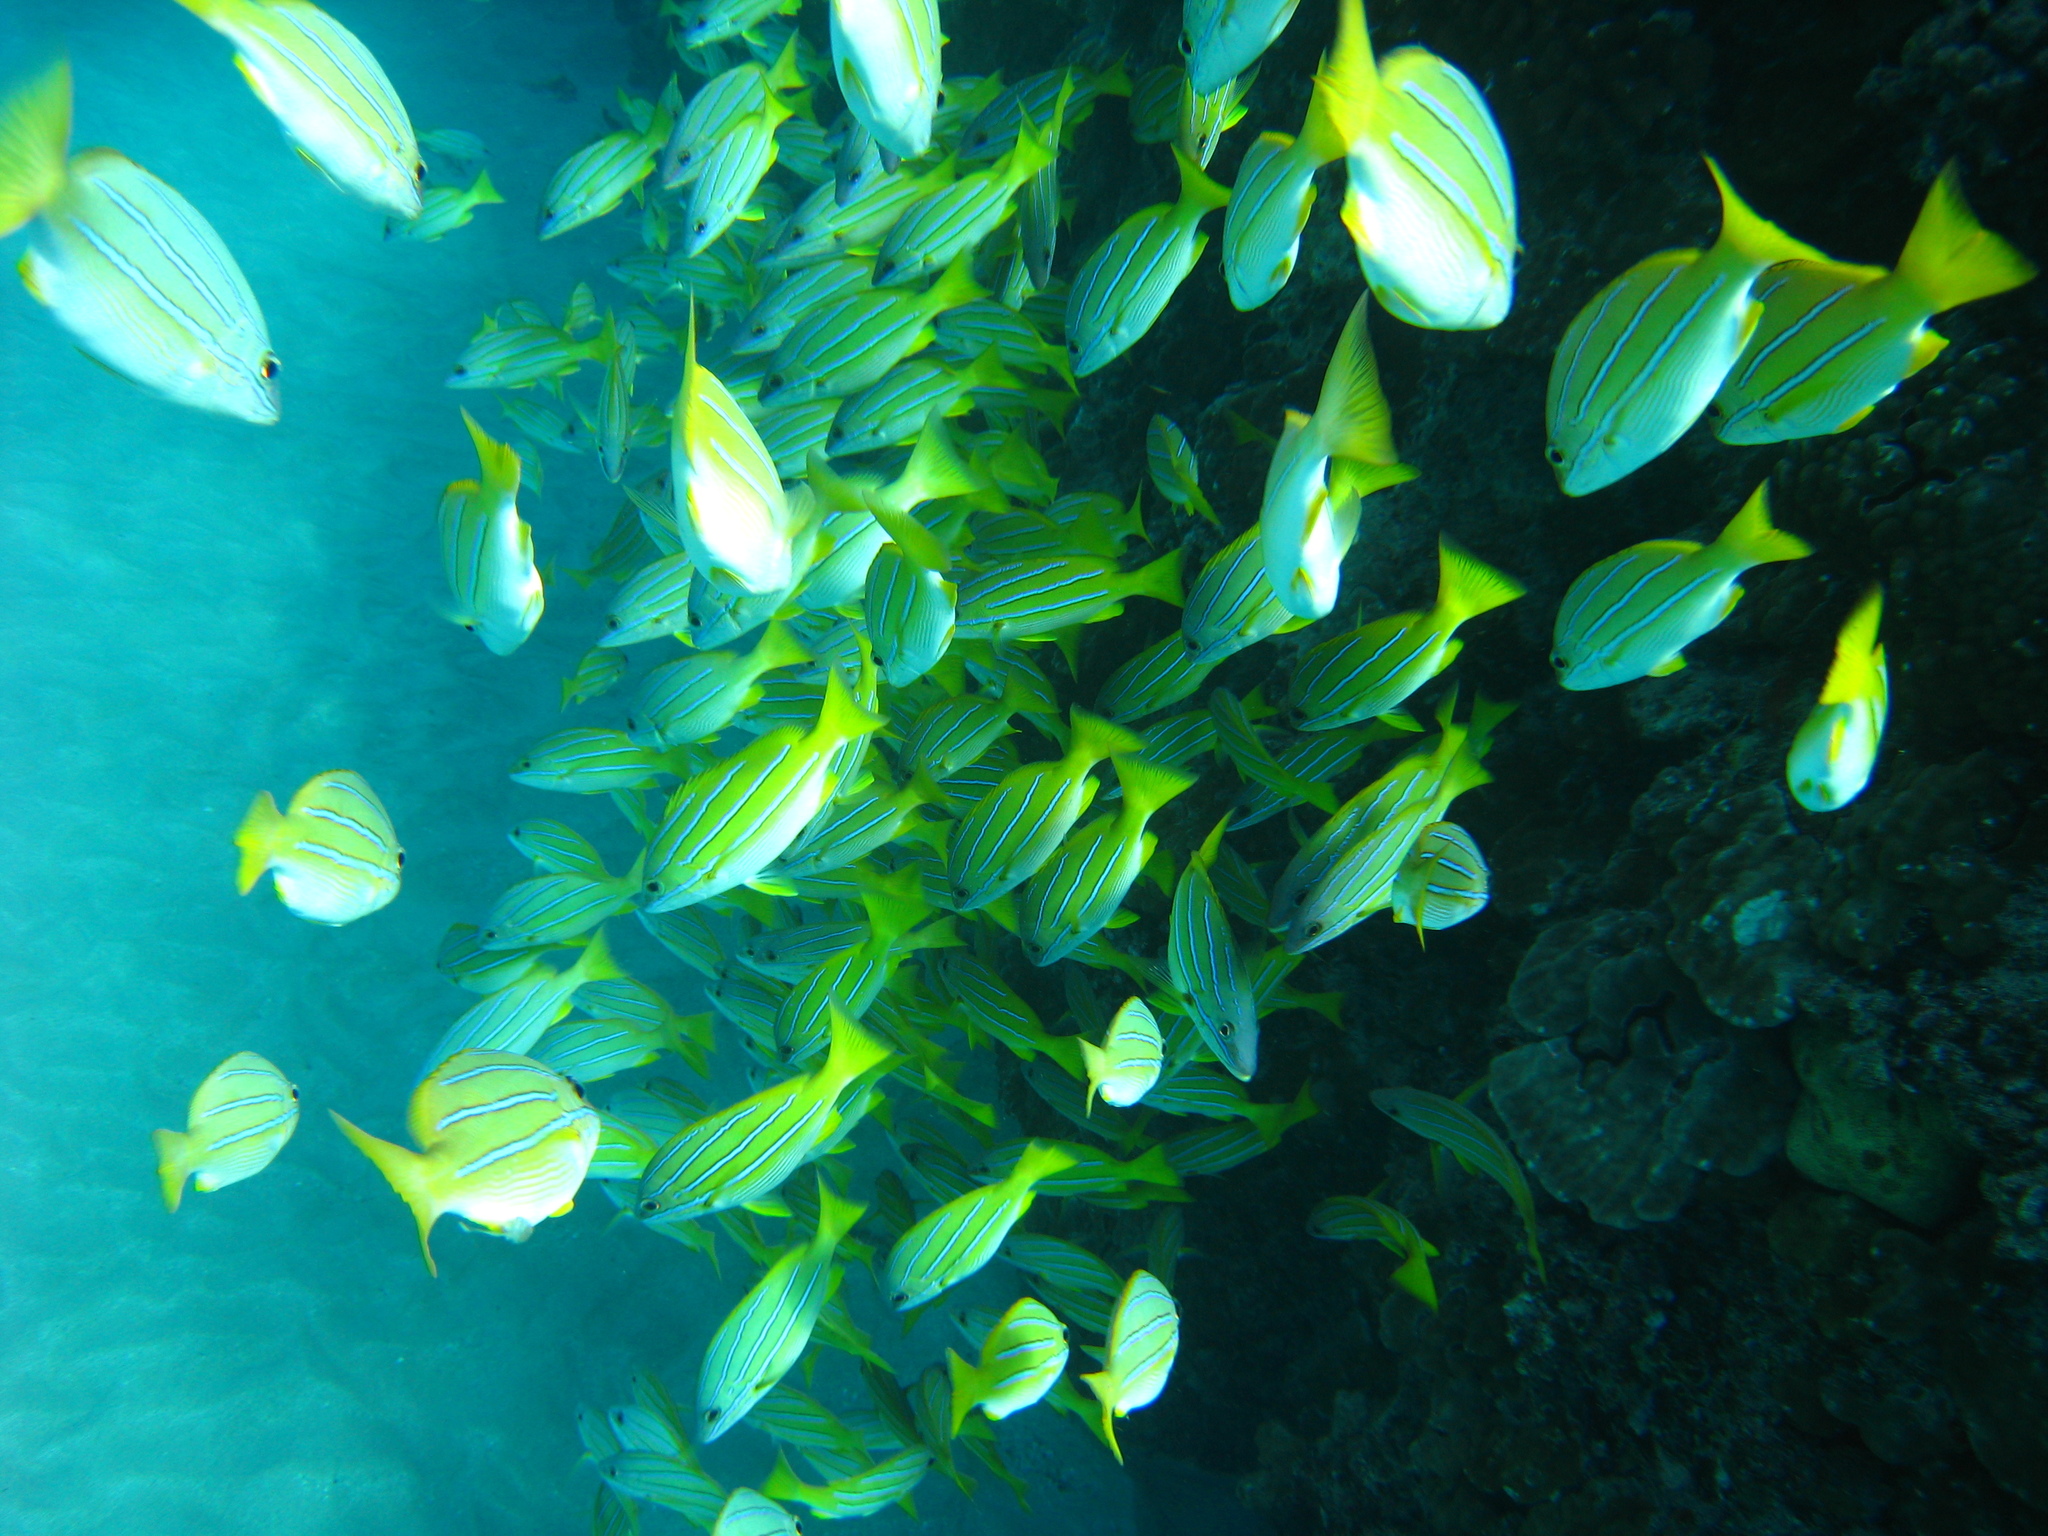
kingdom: Animalia
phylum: Chordata
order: Perciformes
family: Lutjanidae
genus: Lutjanus
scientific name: Lutjanus kasmira
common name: Common bluestripe snapper
